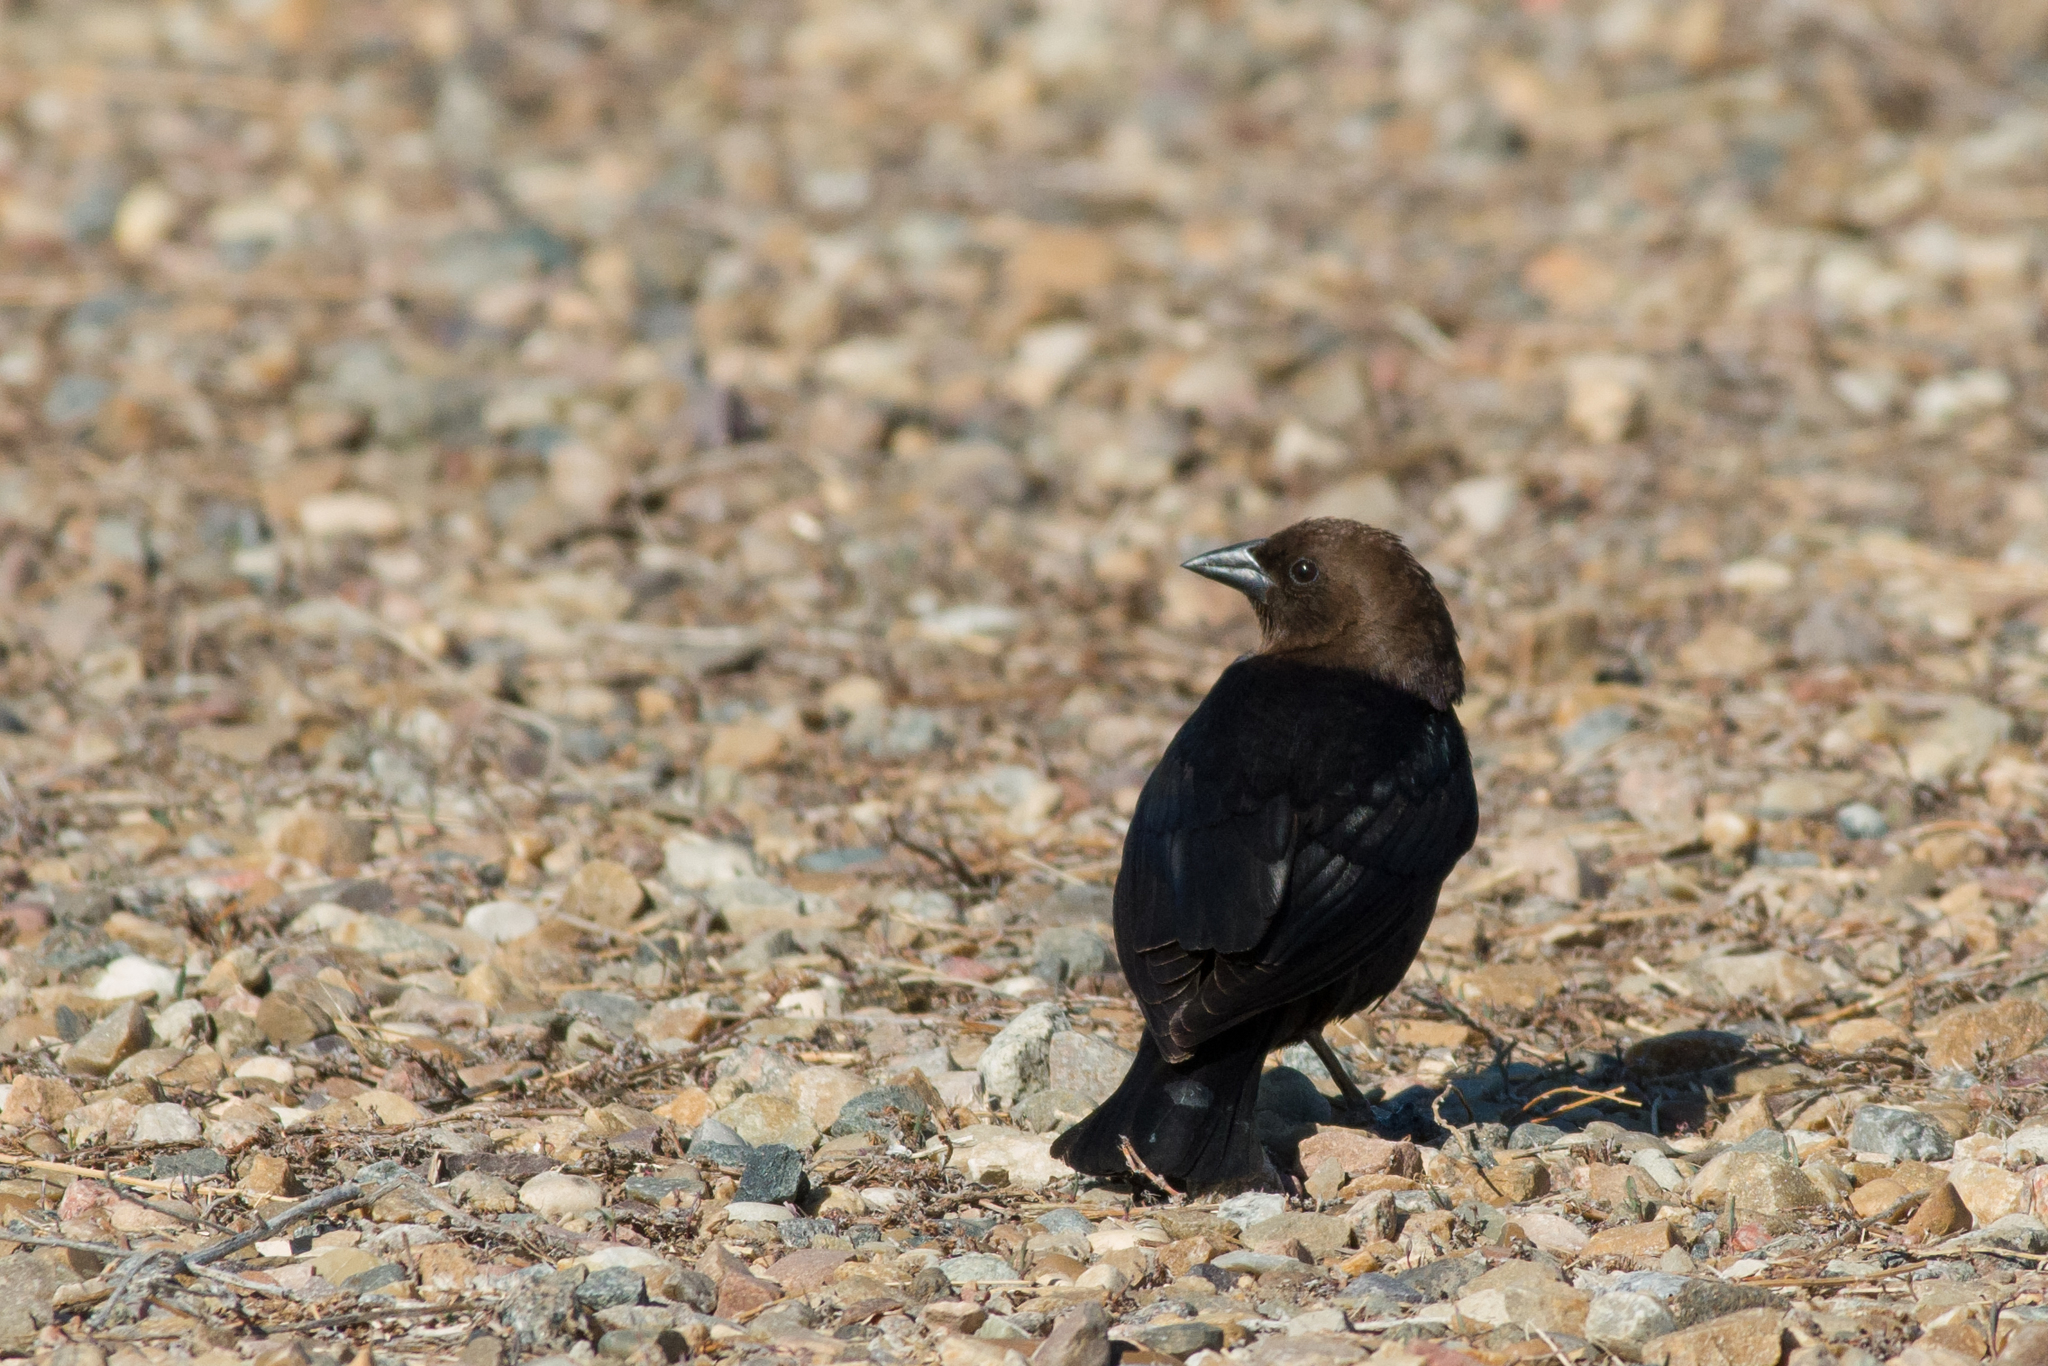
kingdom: Animalia
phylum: Chordata
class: Aves
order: Passeriformes
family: Icteridae
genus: Molothrus
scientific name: Molothrus ater
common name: Brown-headed cowbird
